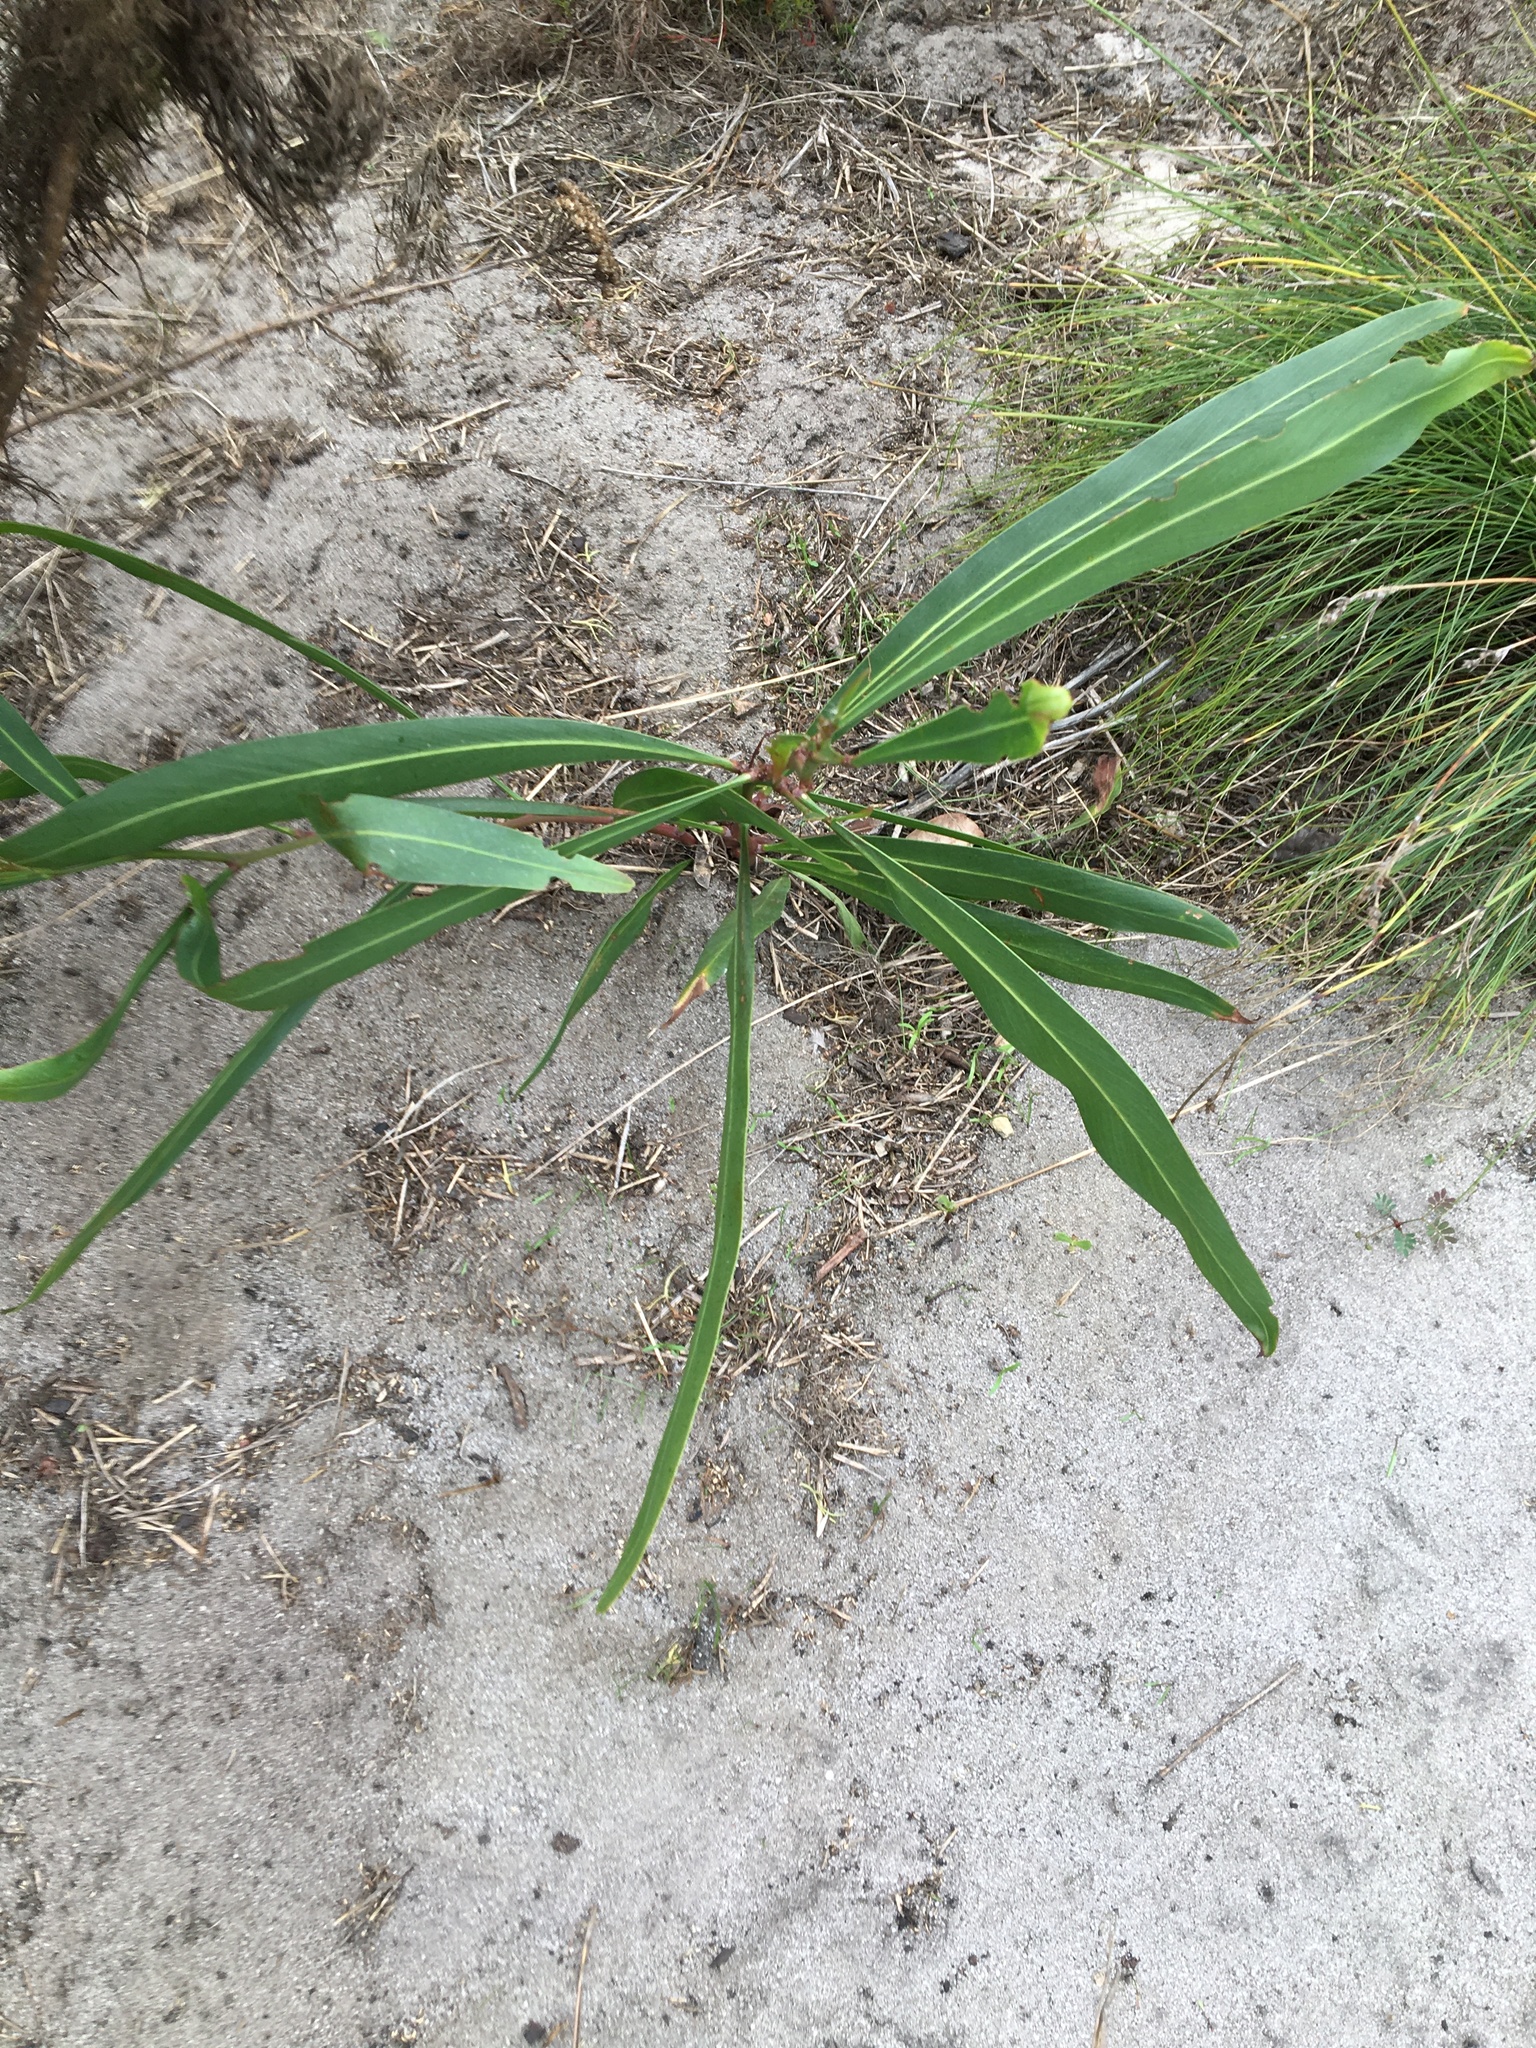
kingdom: Plantae
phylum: Tracheophyta
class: Magnoliopsida
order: Fabales
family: Fabaceae
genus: Acacia
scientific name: Acacia saligna
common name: Orange wattle
